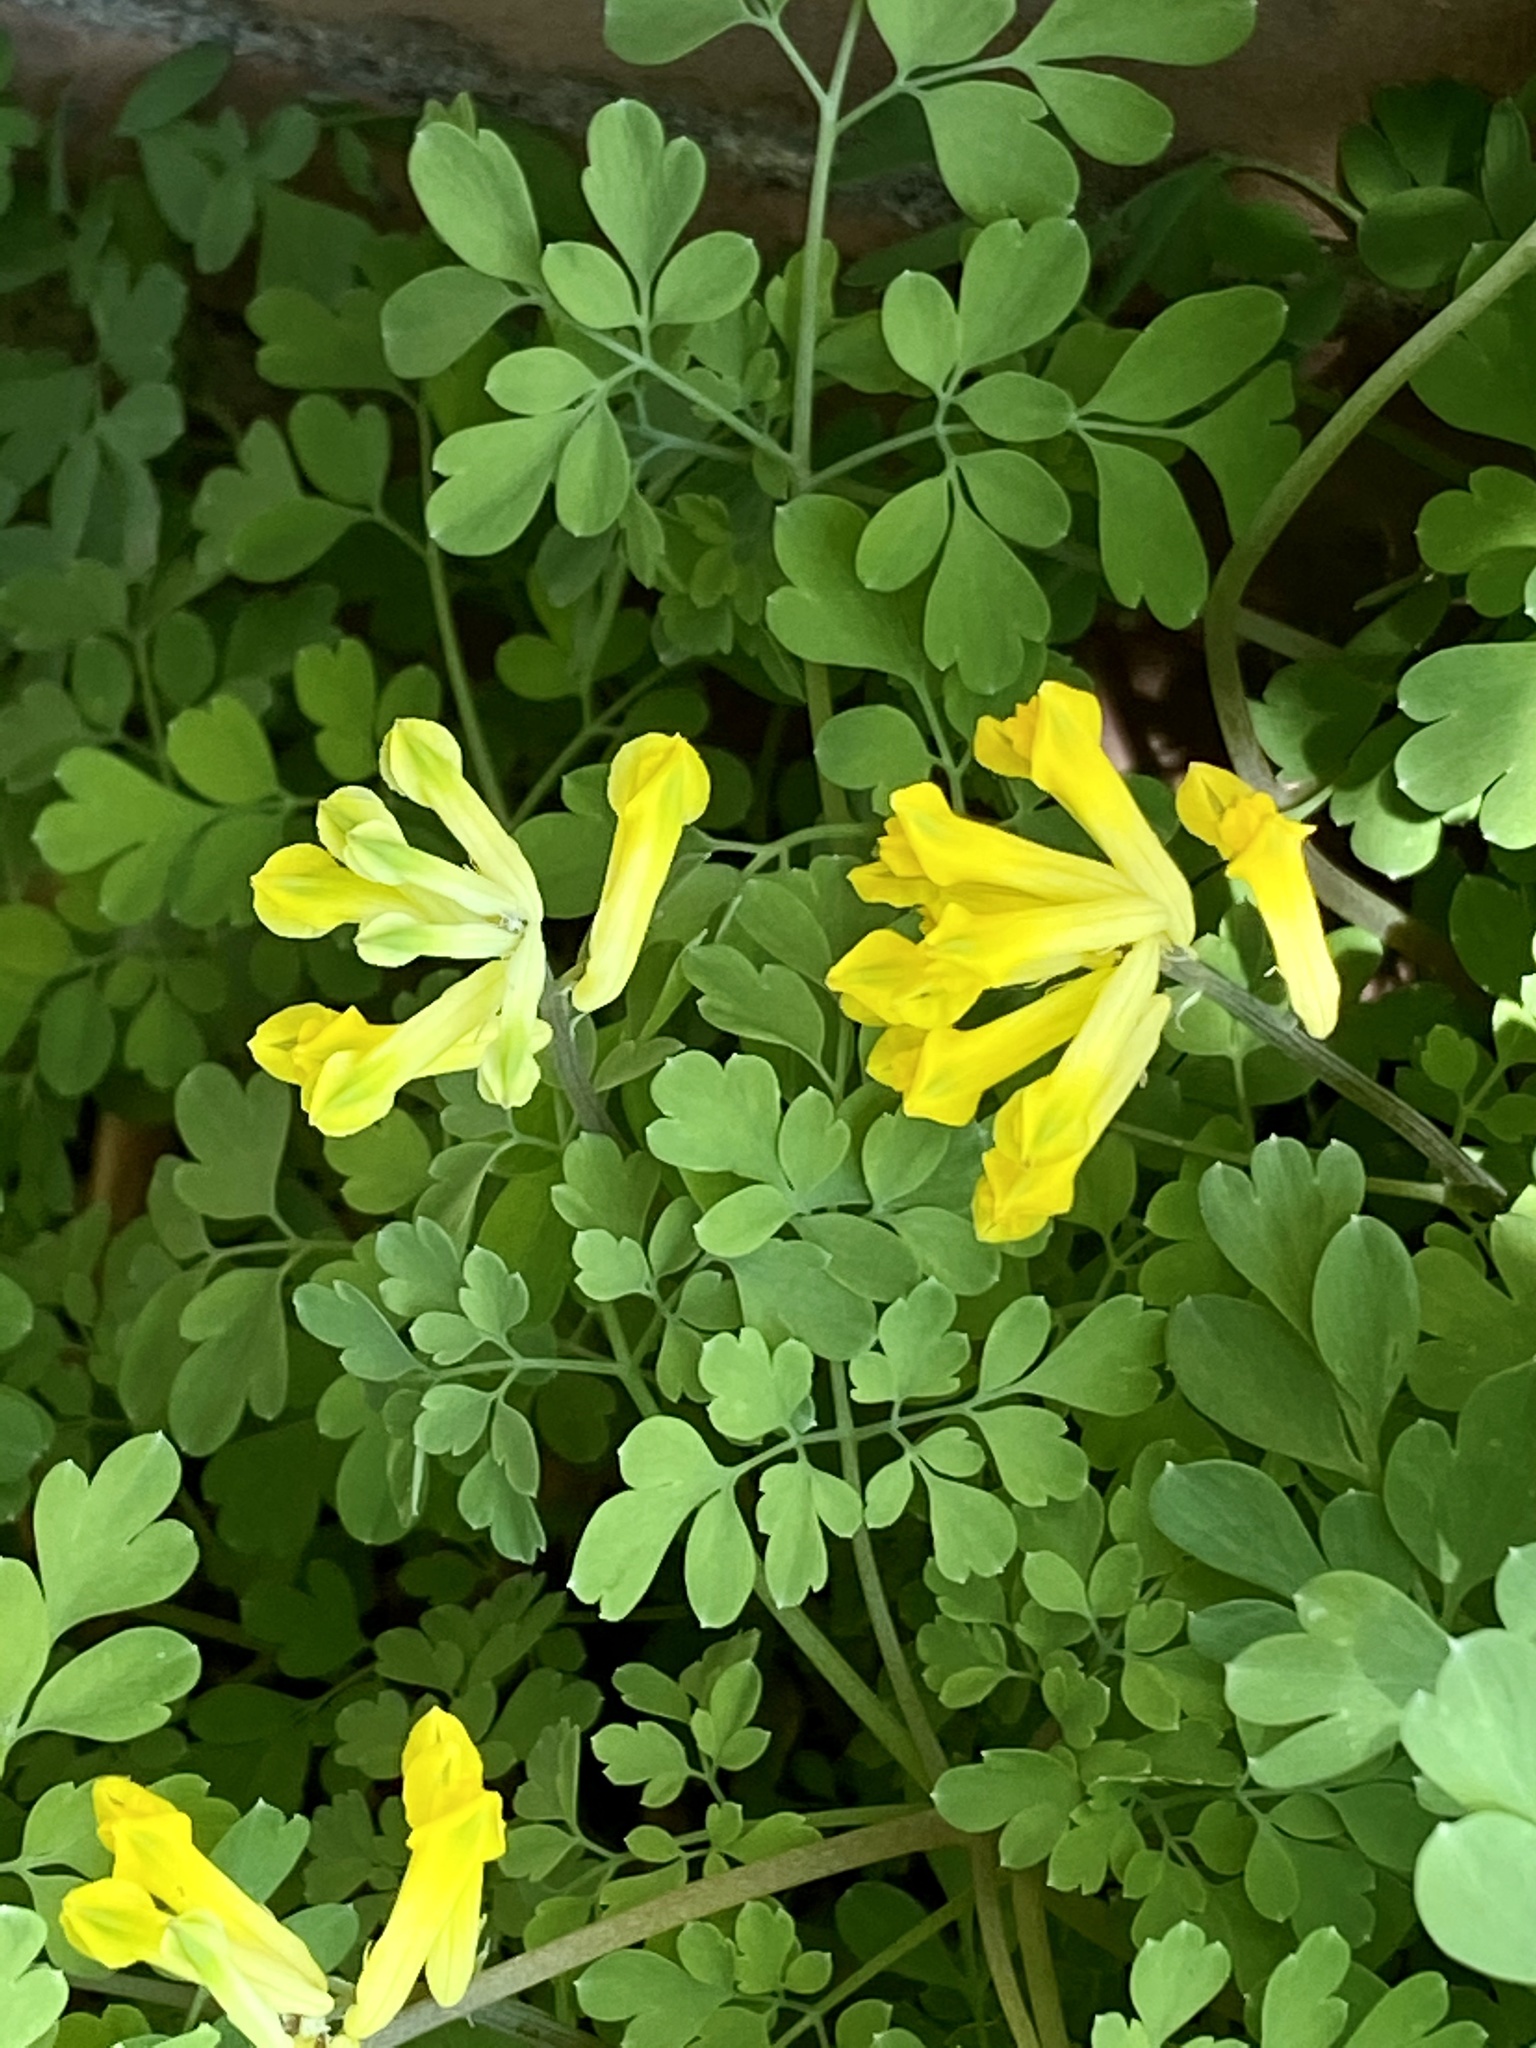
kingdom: Plantae
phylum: Tracheophyta
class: Magnoliopsida
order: Ranunculales
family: Papaveraceae
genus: Pseudofumaria
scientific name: Pseudofumaria lutea
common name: Yellow corydalis
